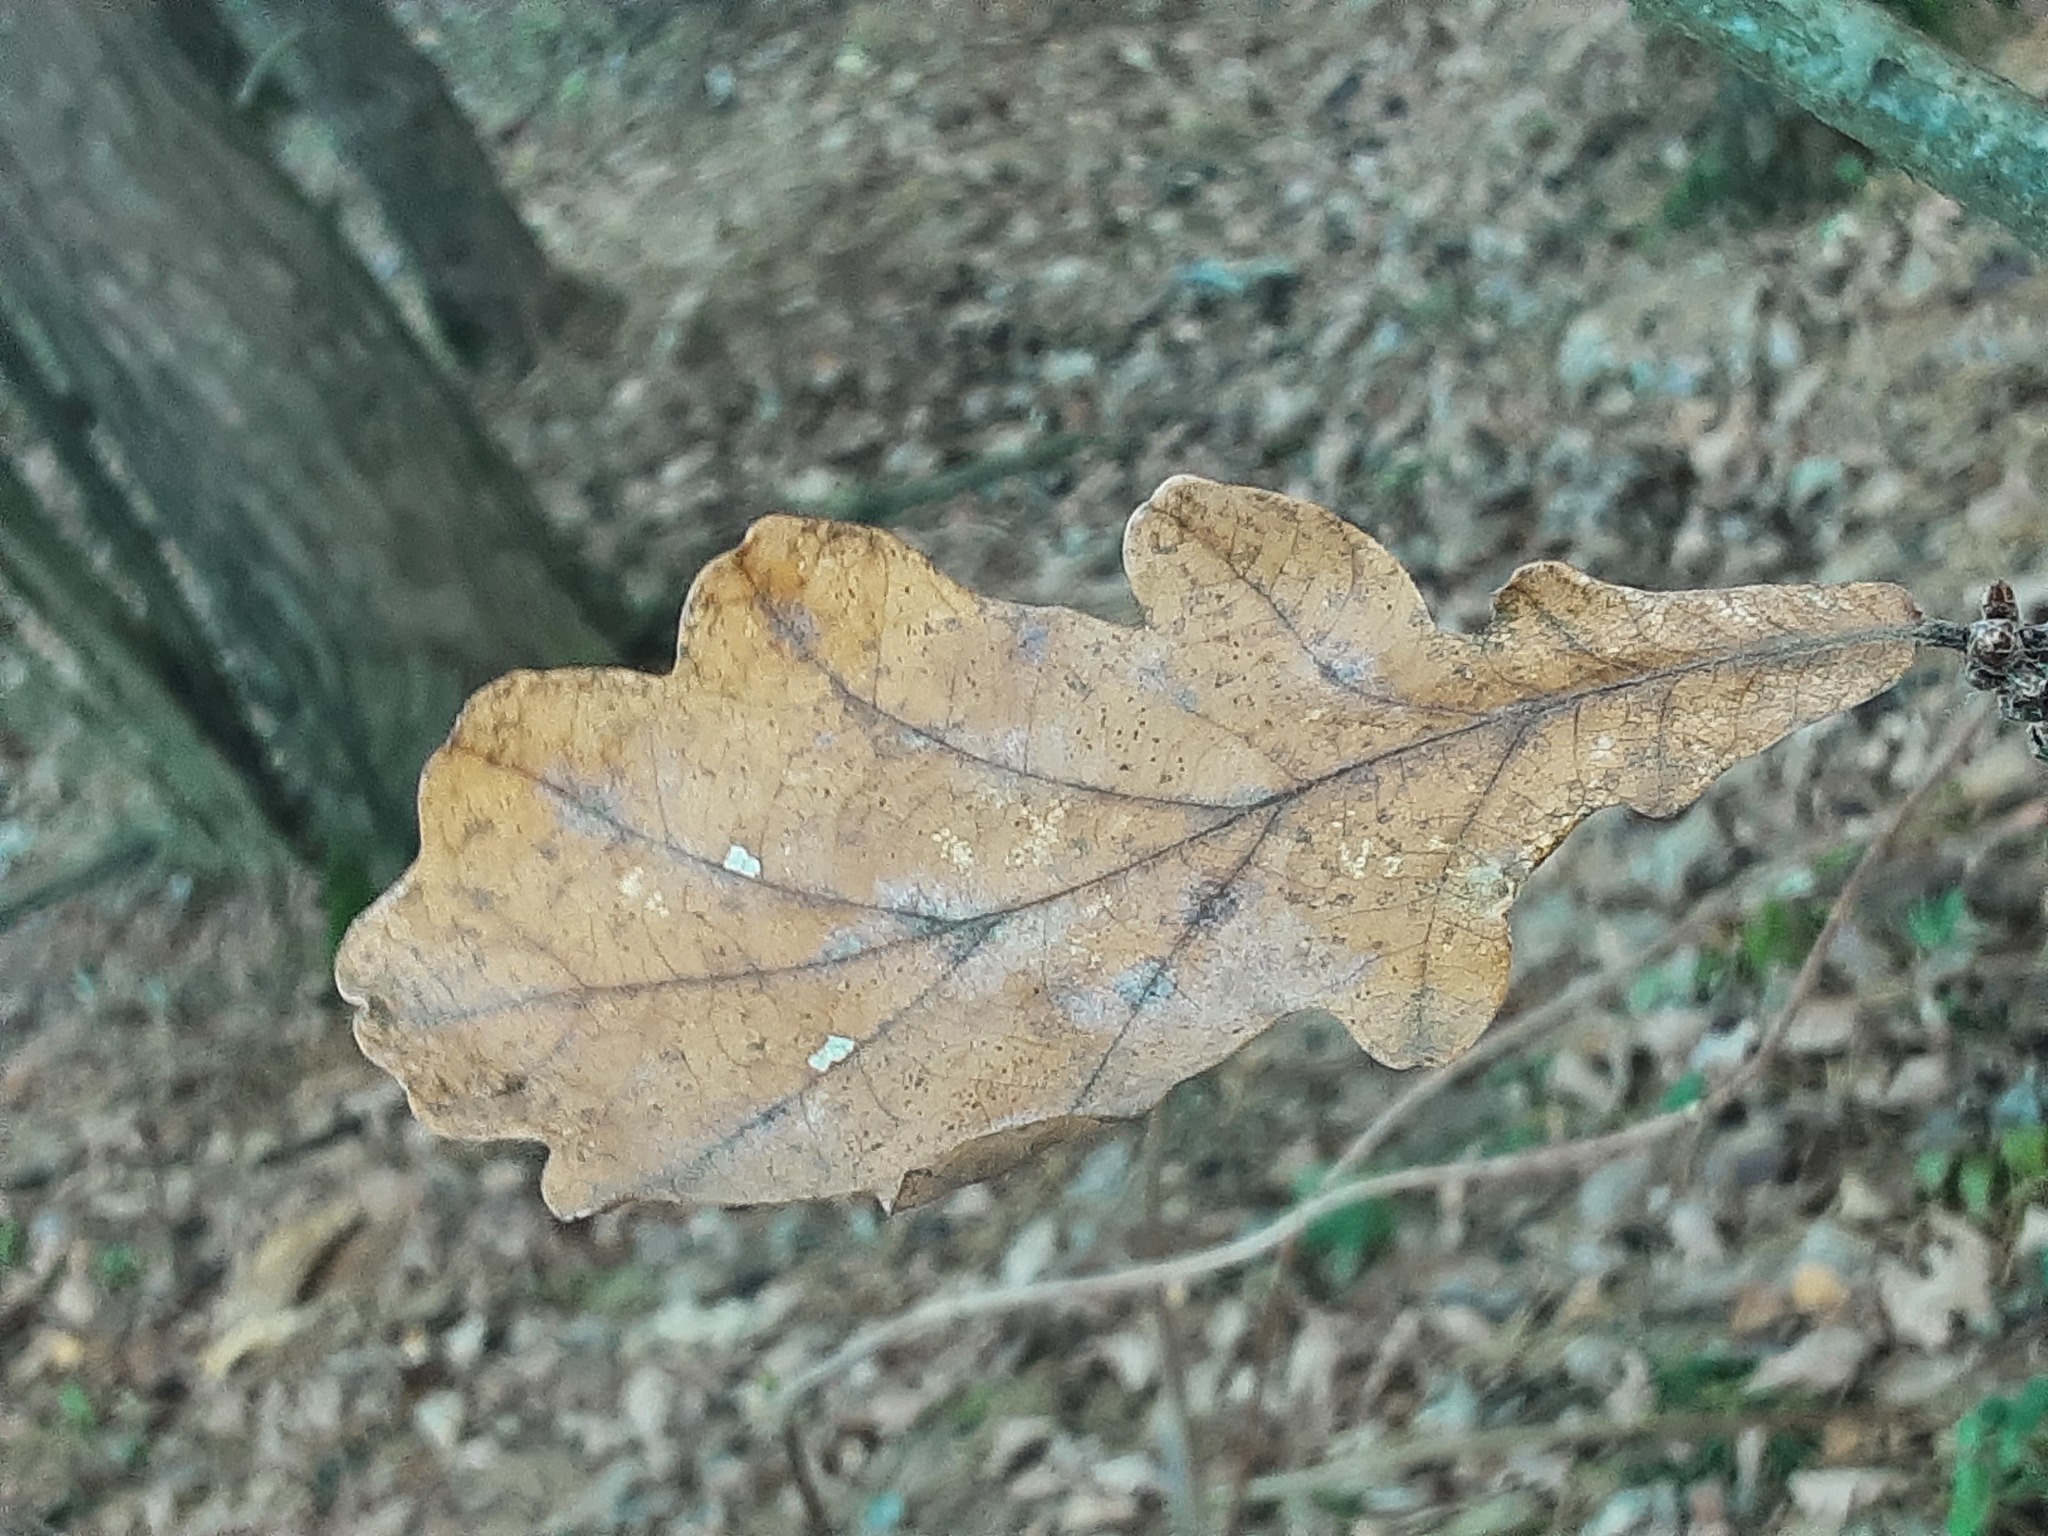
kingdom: Plantae
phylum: Tracheophyta
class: Magnoliopsida
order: Fagales
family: Fagaceae
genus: Quercus
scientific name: Quercus robur
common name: Pedunculate oak
